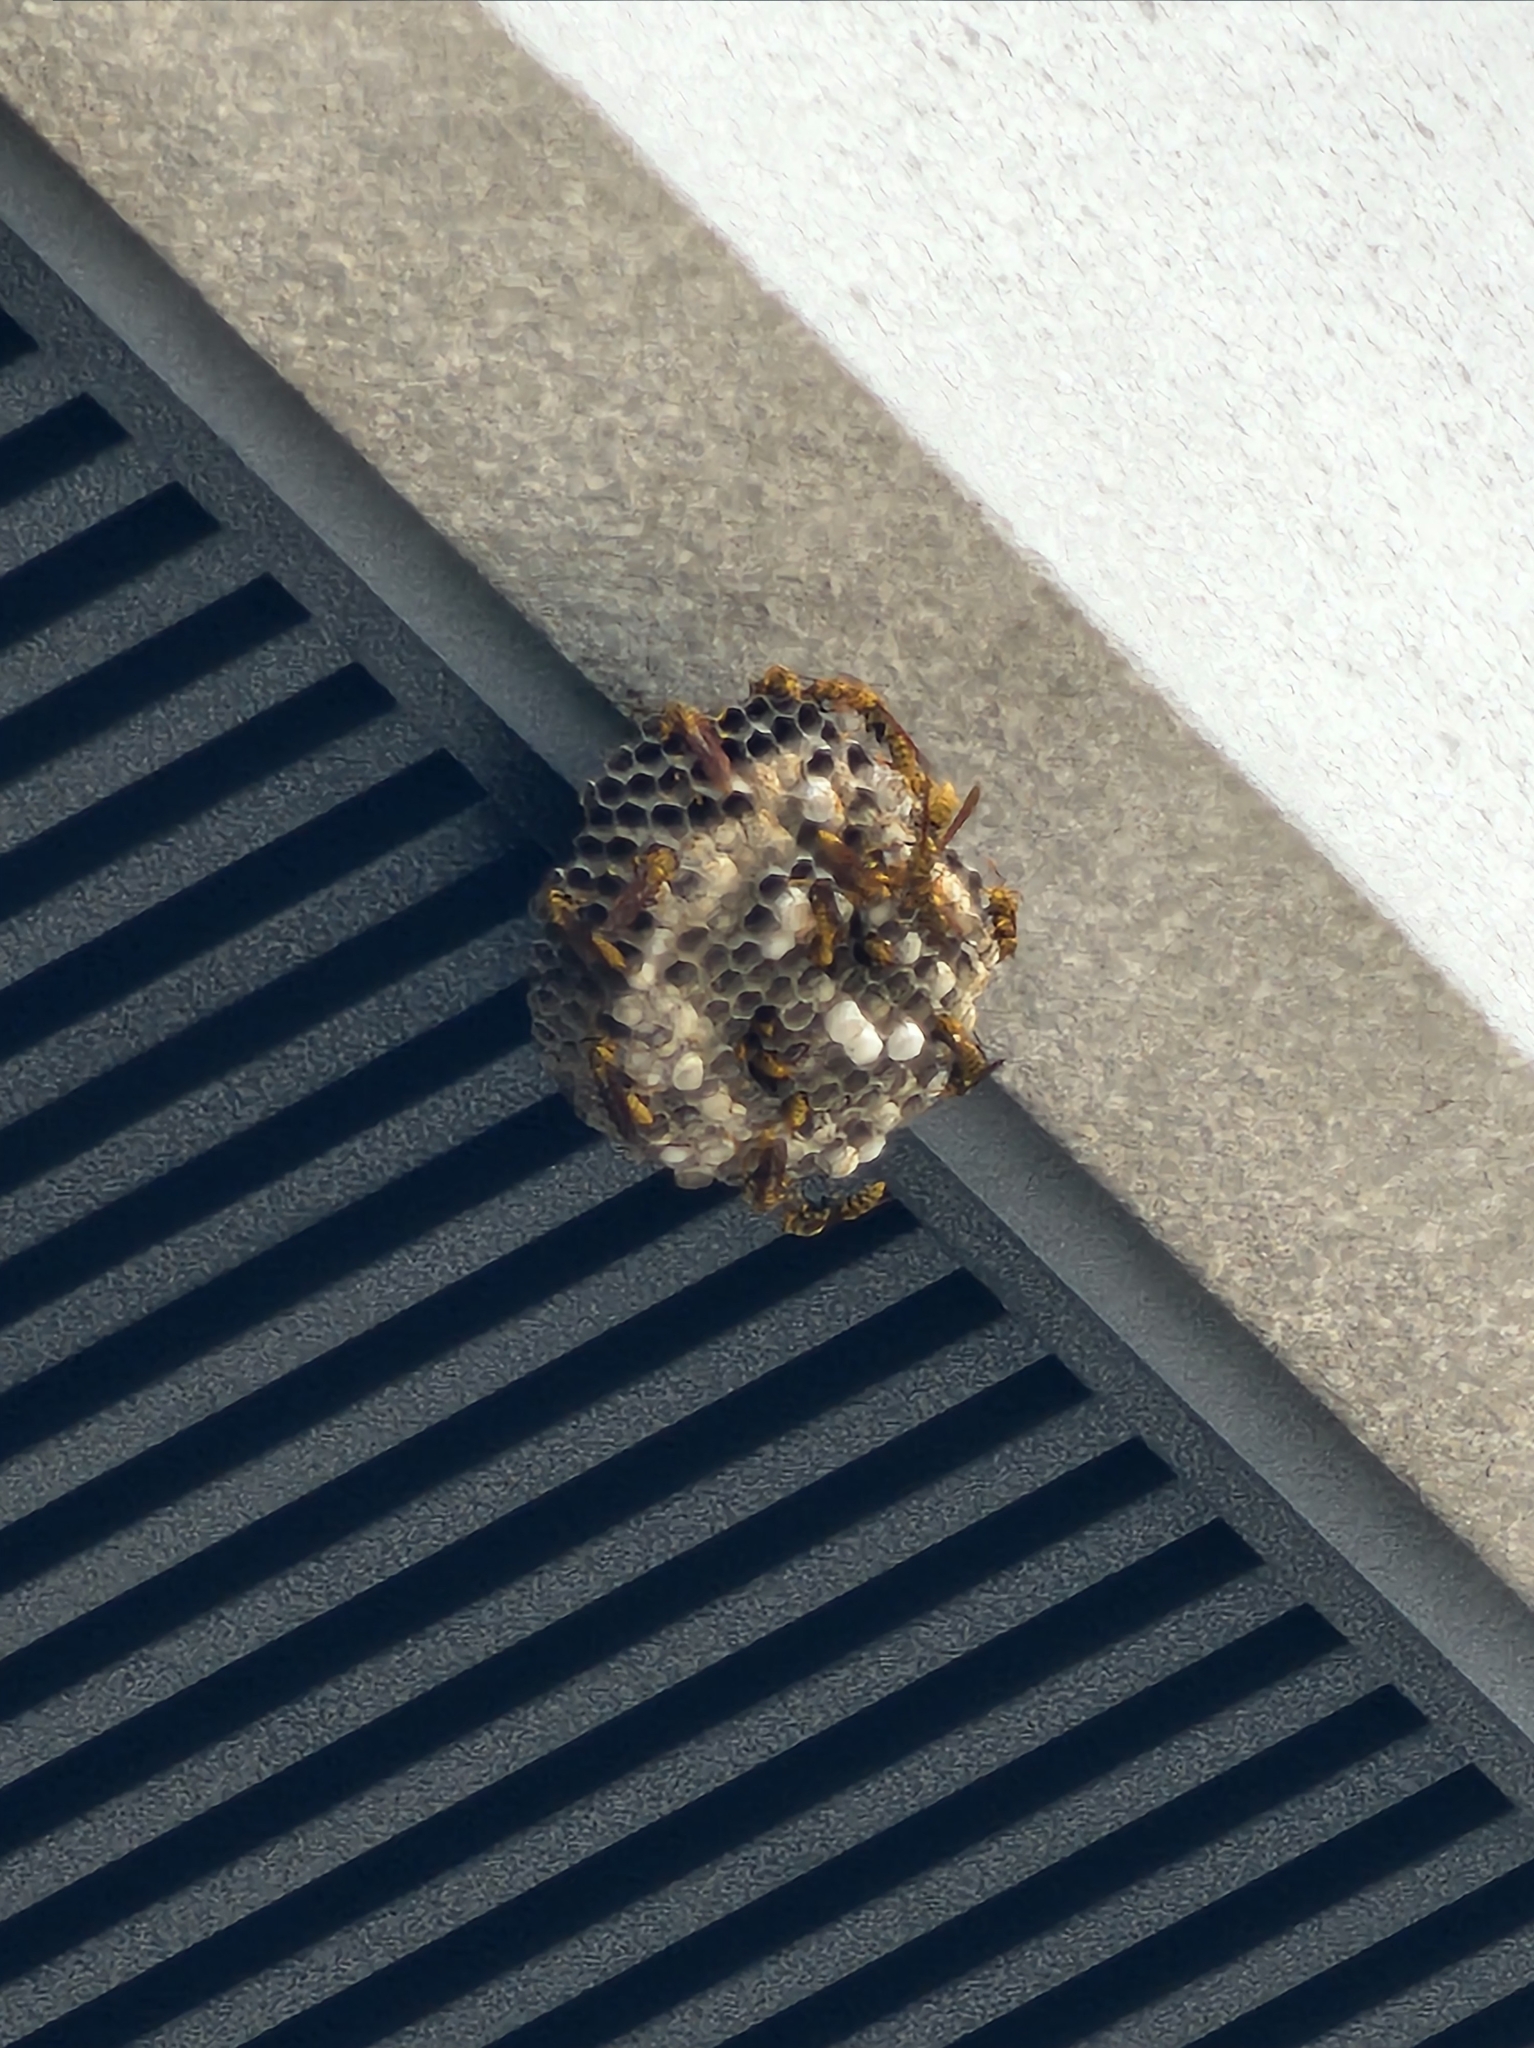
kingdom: Animalia
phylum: Arthropoda
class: Insecta
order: Hymenoptera
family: Eumenidae
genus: Polistes
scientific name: Polistes rothneyi
